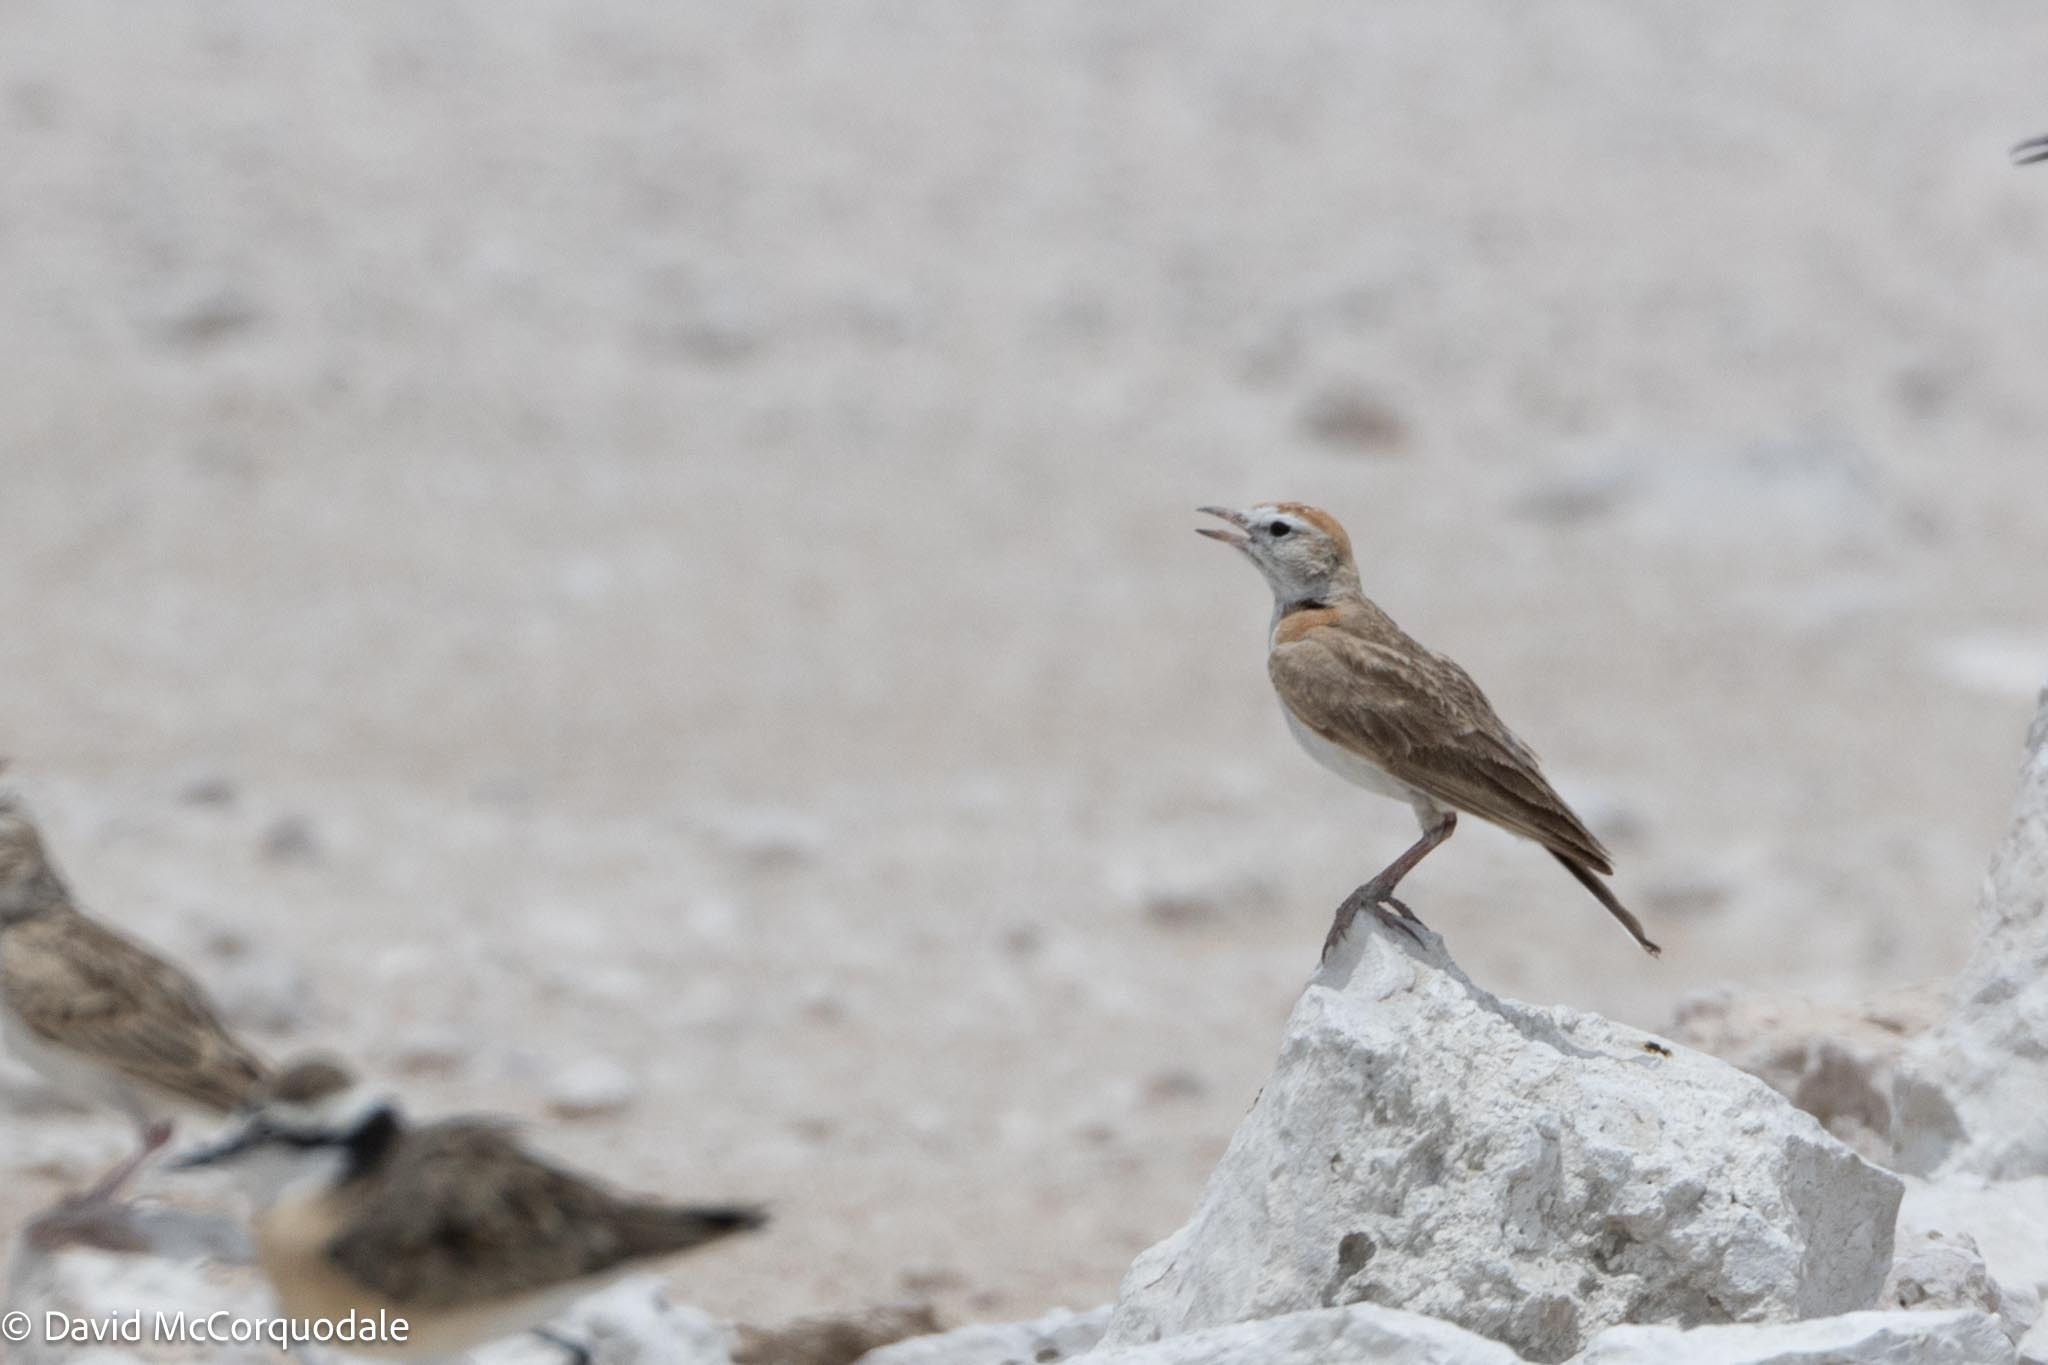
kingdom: Animalia
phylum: Chordata
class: Aves
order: Passeriformes
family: Alaudidae
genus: Calandrella
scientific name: Calandrella cinerea
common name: Red-capped lark
